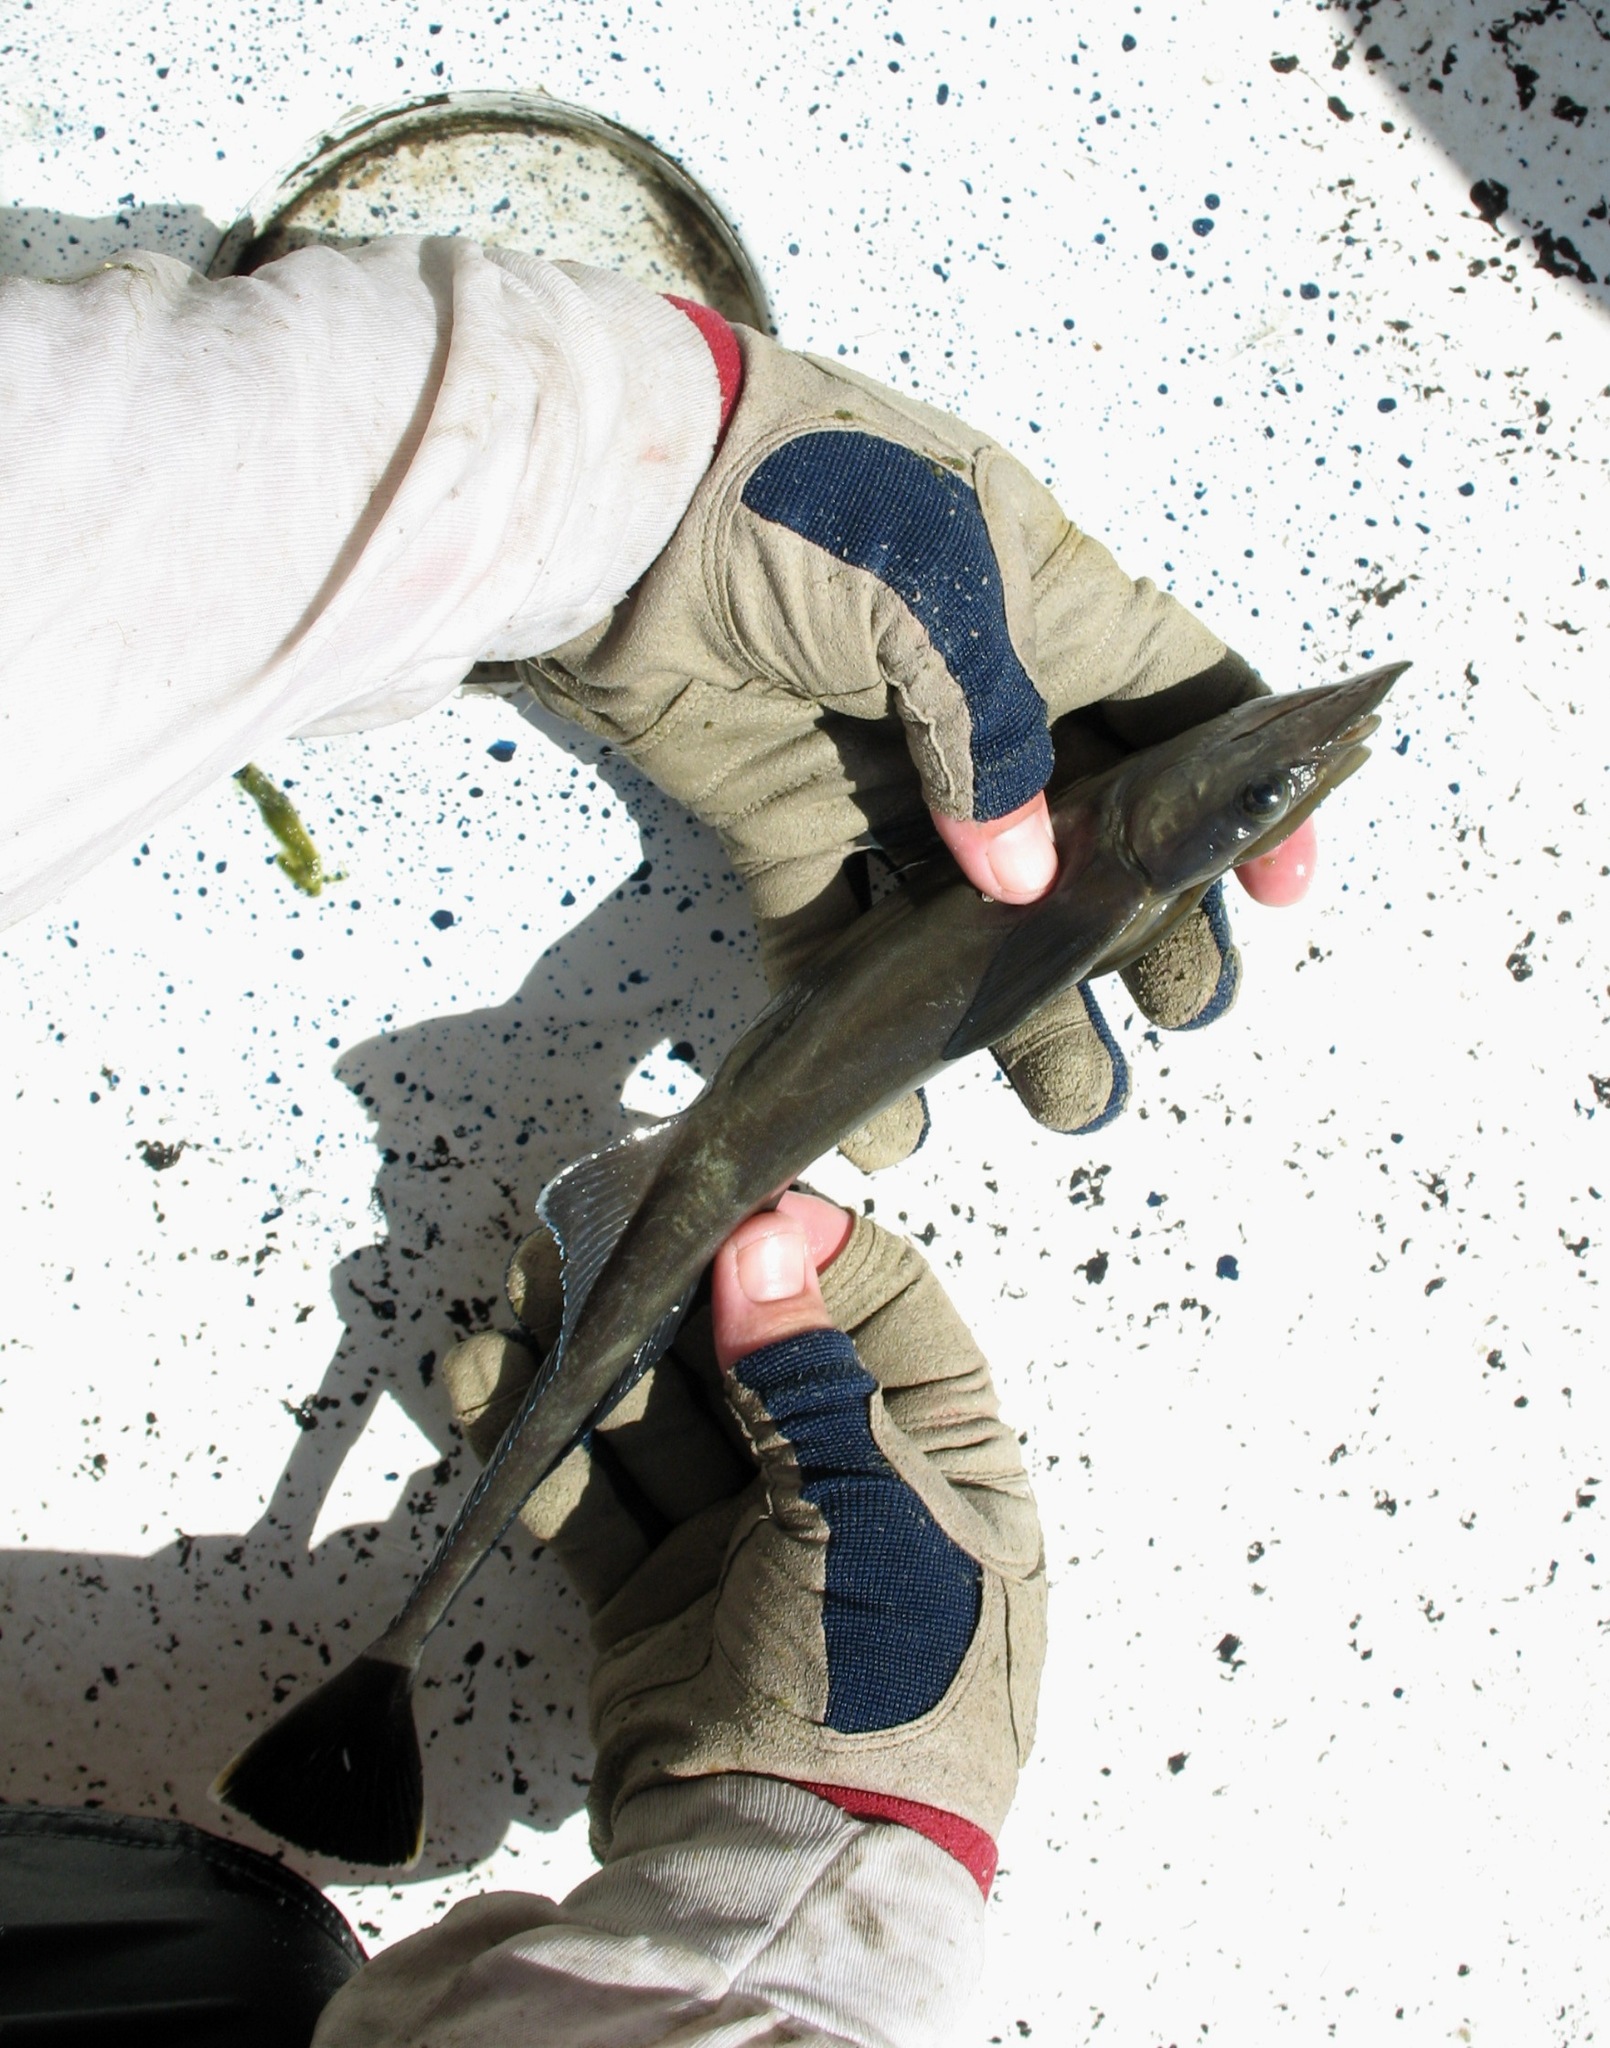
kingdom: Animalia
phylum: Chordata
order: Perciformes
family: Echeneidae
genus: Echeneis
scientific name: Echeneis naucrates
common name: Sharksucker
